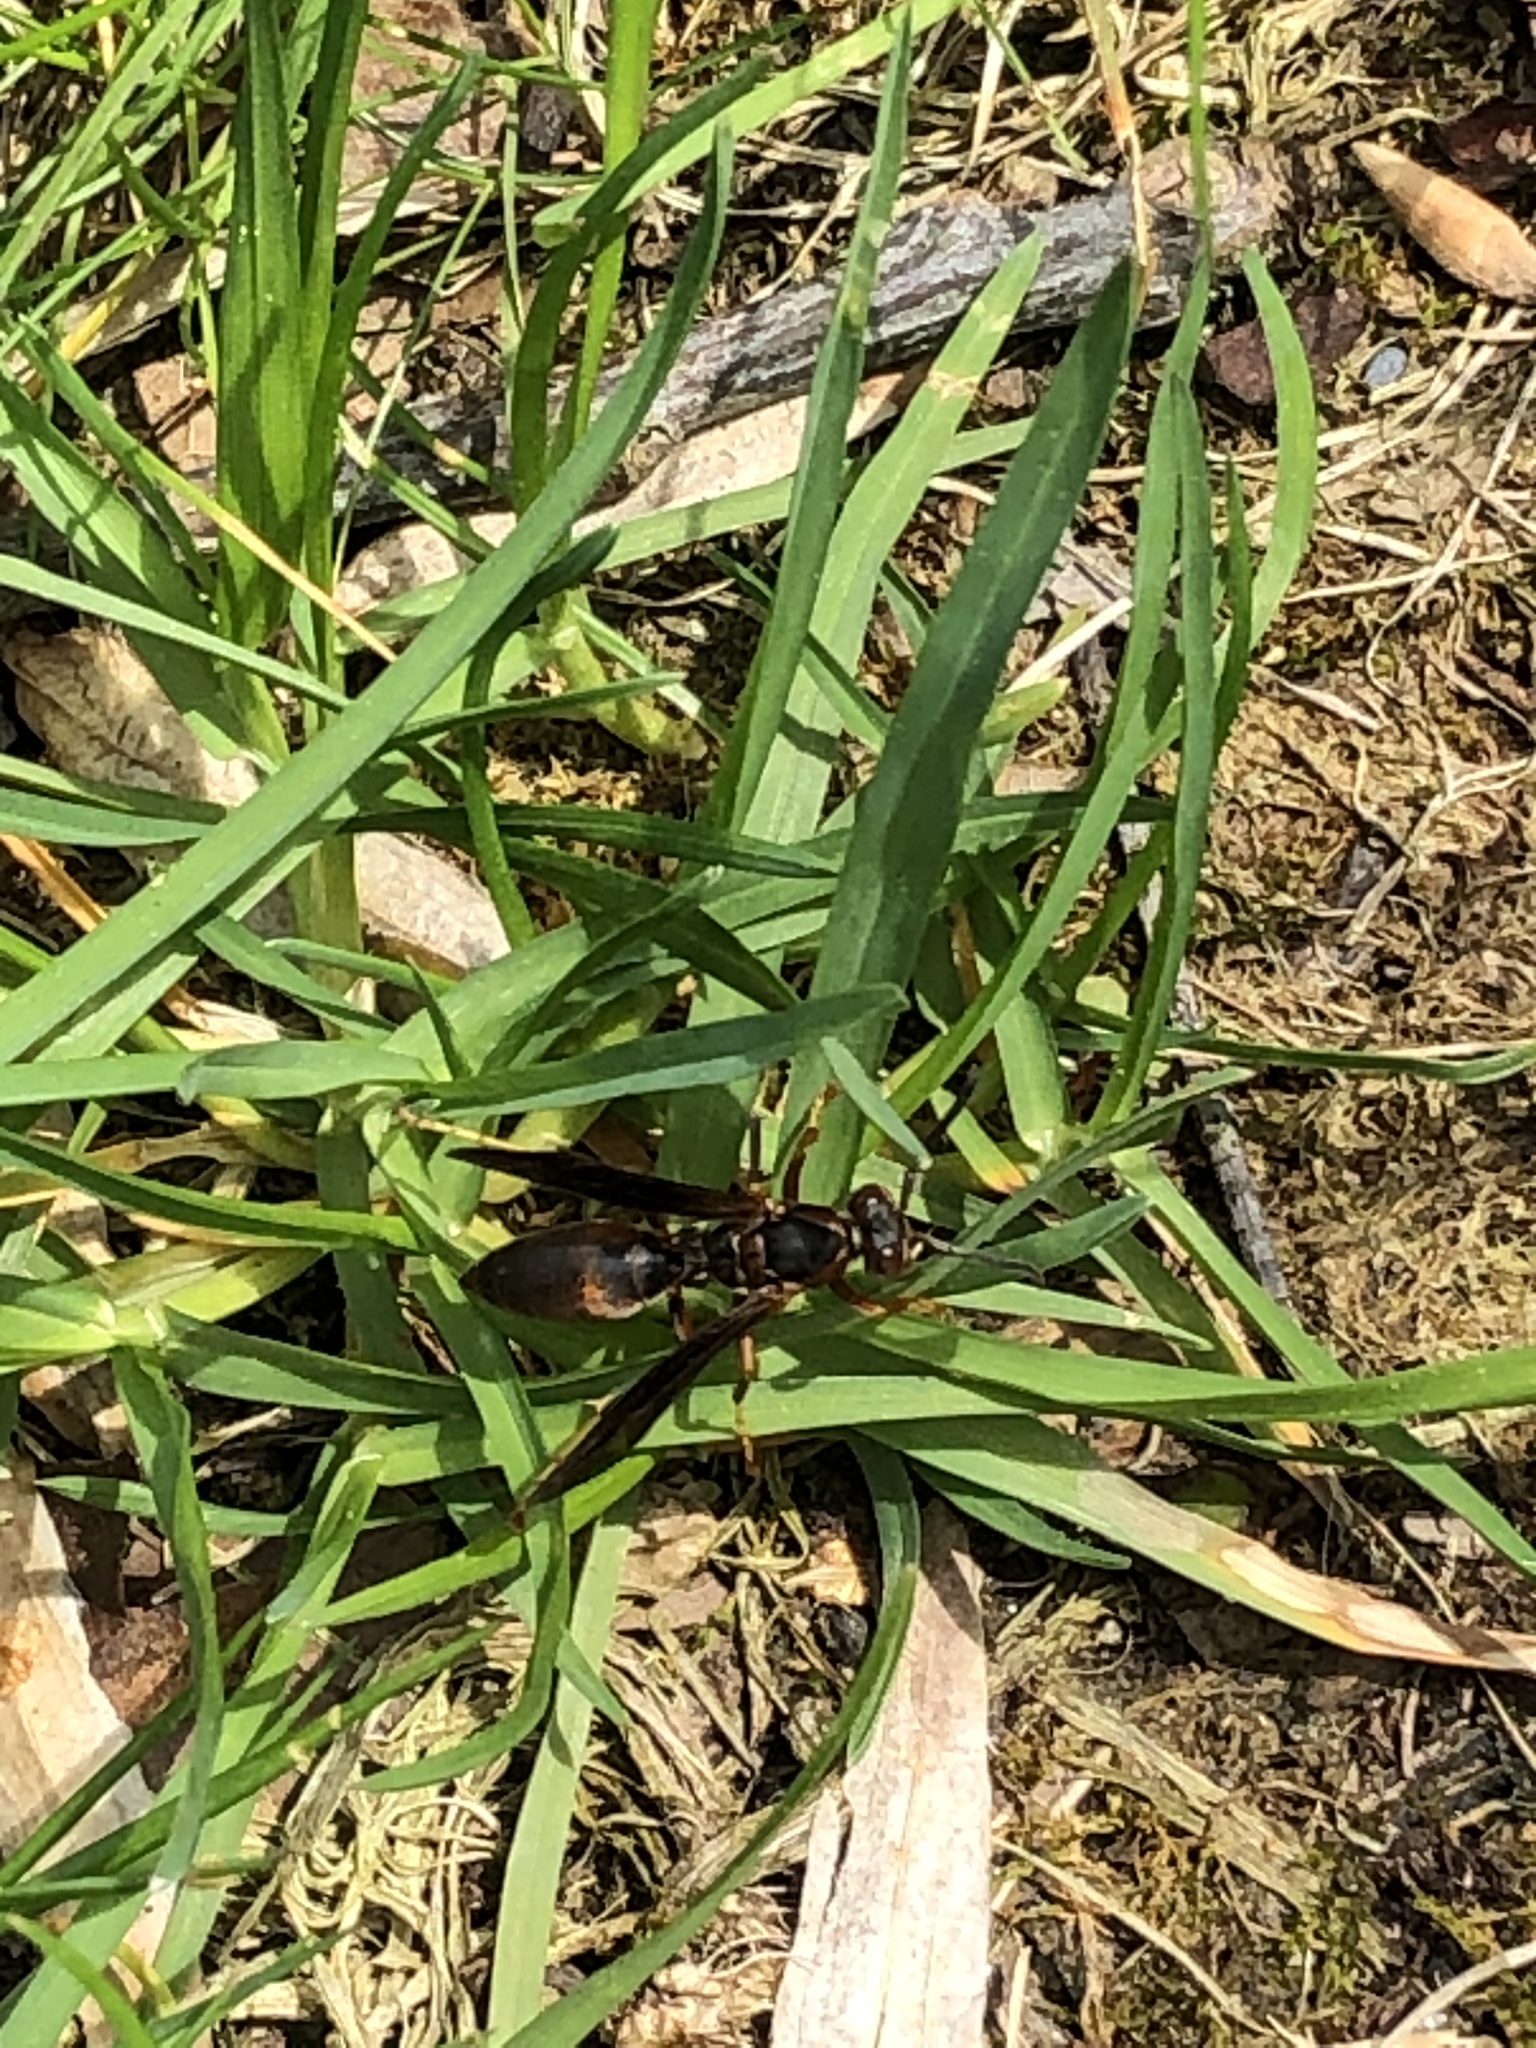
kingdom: Animalia
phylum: Arthropoda
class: Insecta
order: Hymenoptera
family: Vespidae
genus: Fuscopolistes
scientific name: Fuscopolistes
